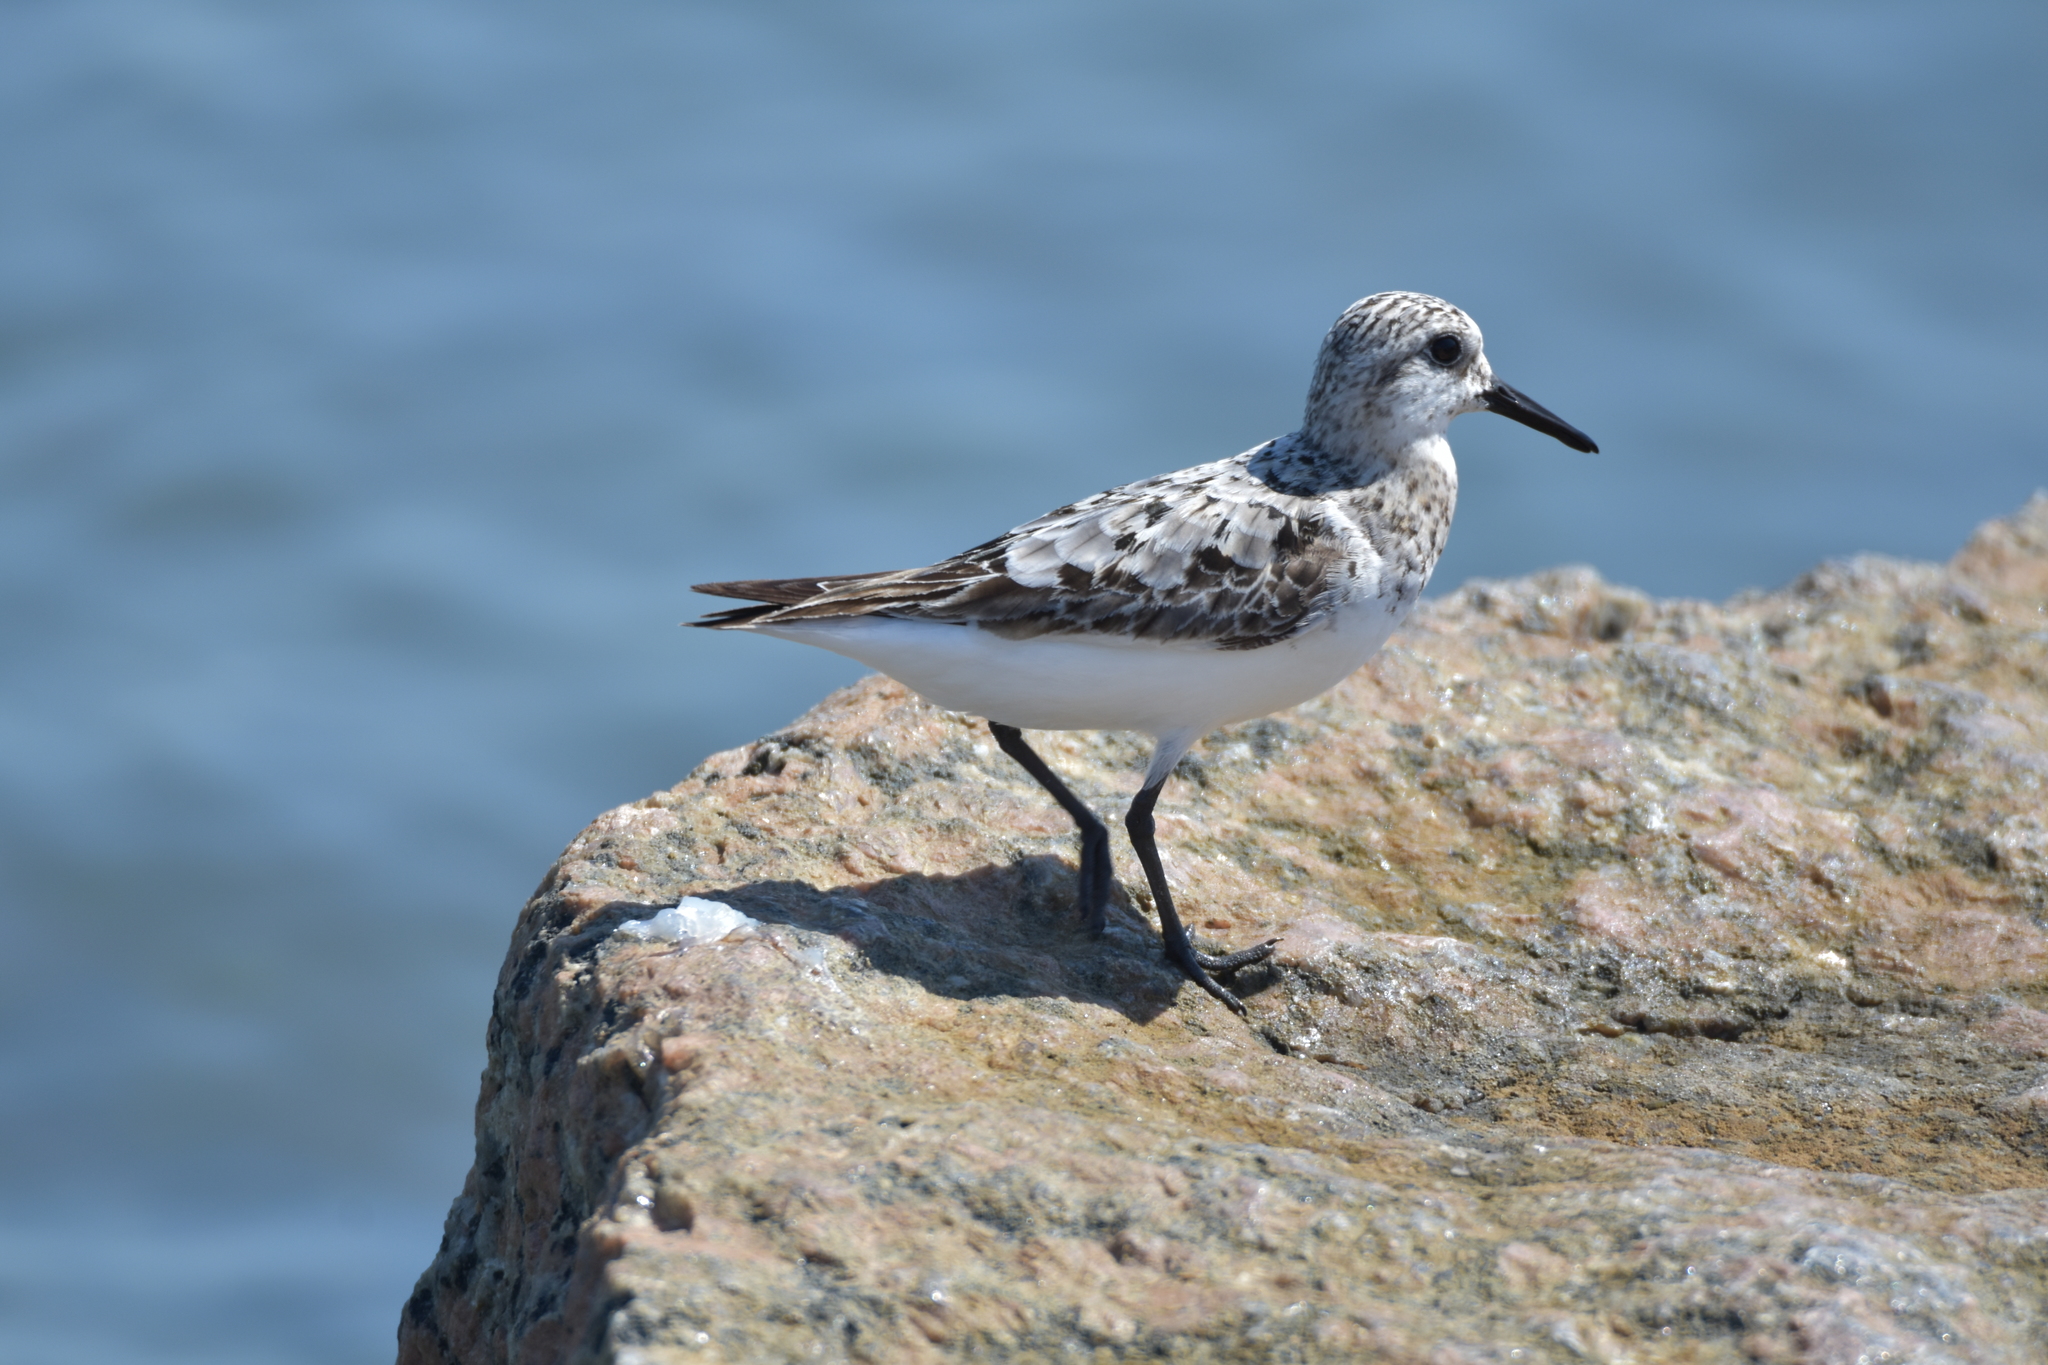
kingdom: Animalia
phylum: Chordata
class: Aves
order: Charadriiformes
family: Scolopacidae
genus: Calidris
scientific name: Calidris alba
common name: Sanderling
